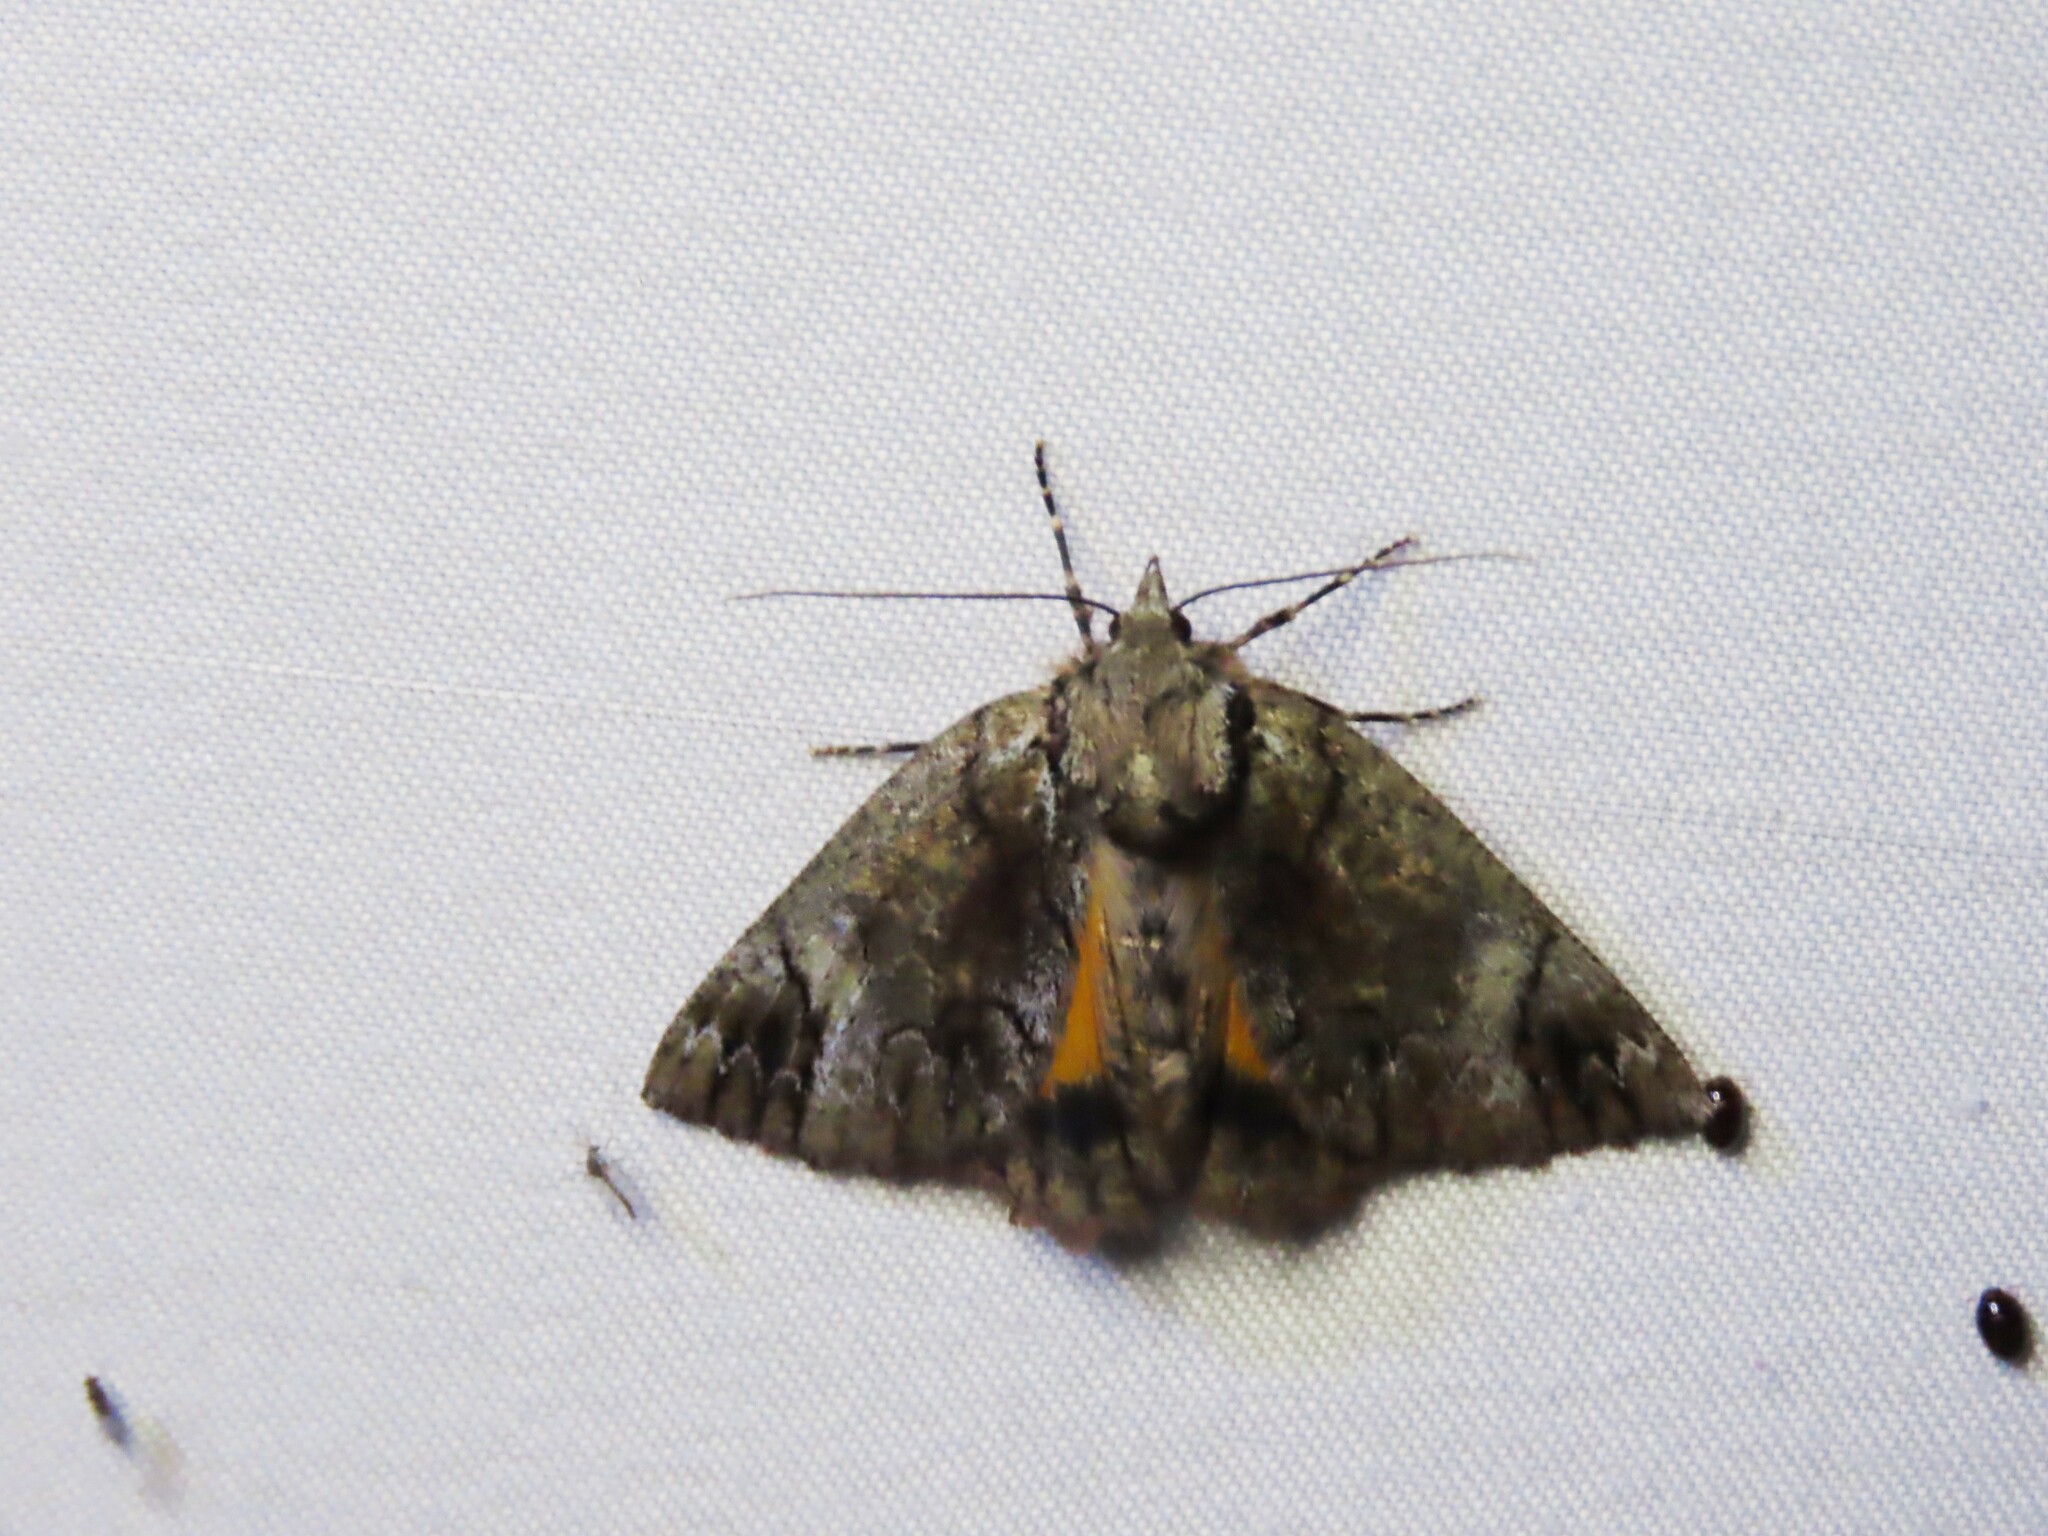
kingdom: Animalia
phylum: Arthropoda
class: Insecta
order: Lepidoptera
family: Geometridae
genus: Heliomystis
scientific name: Heliomystis electrica
